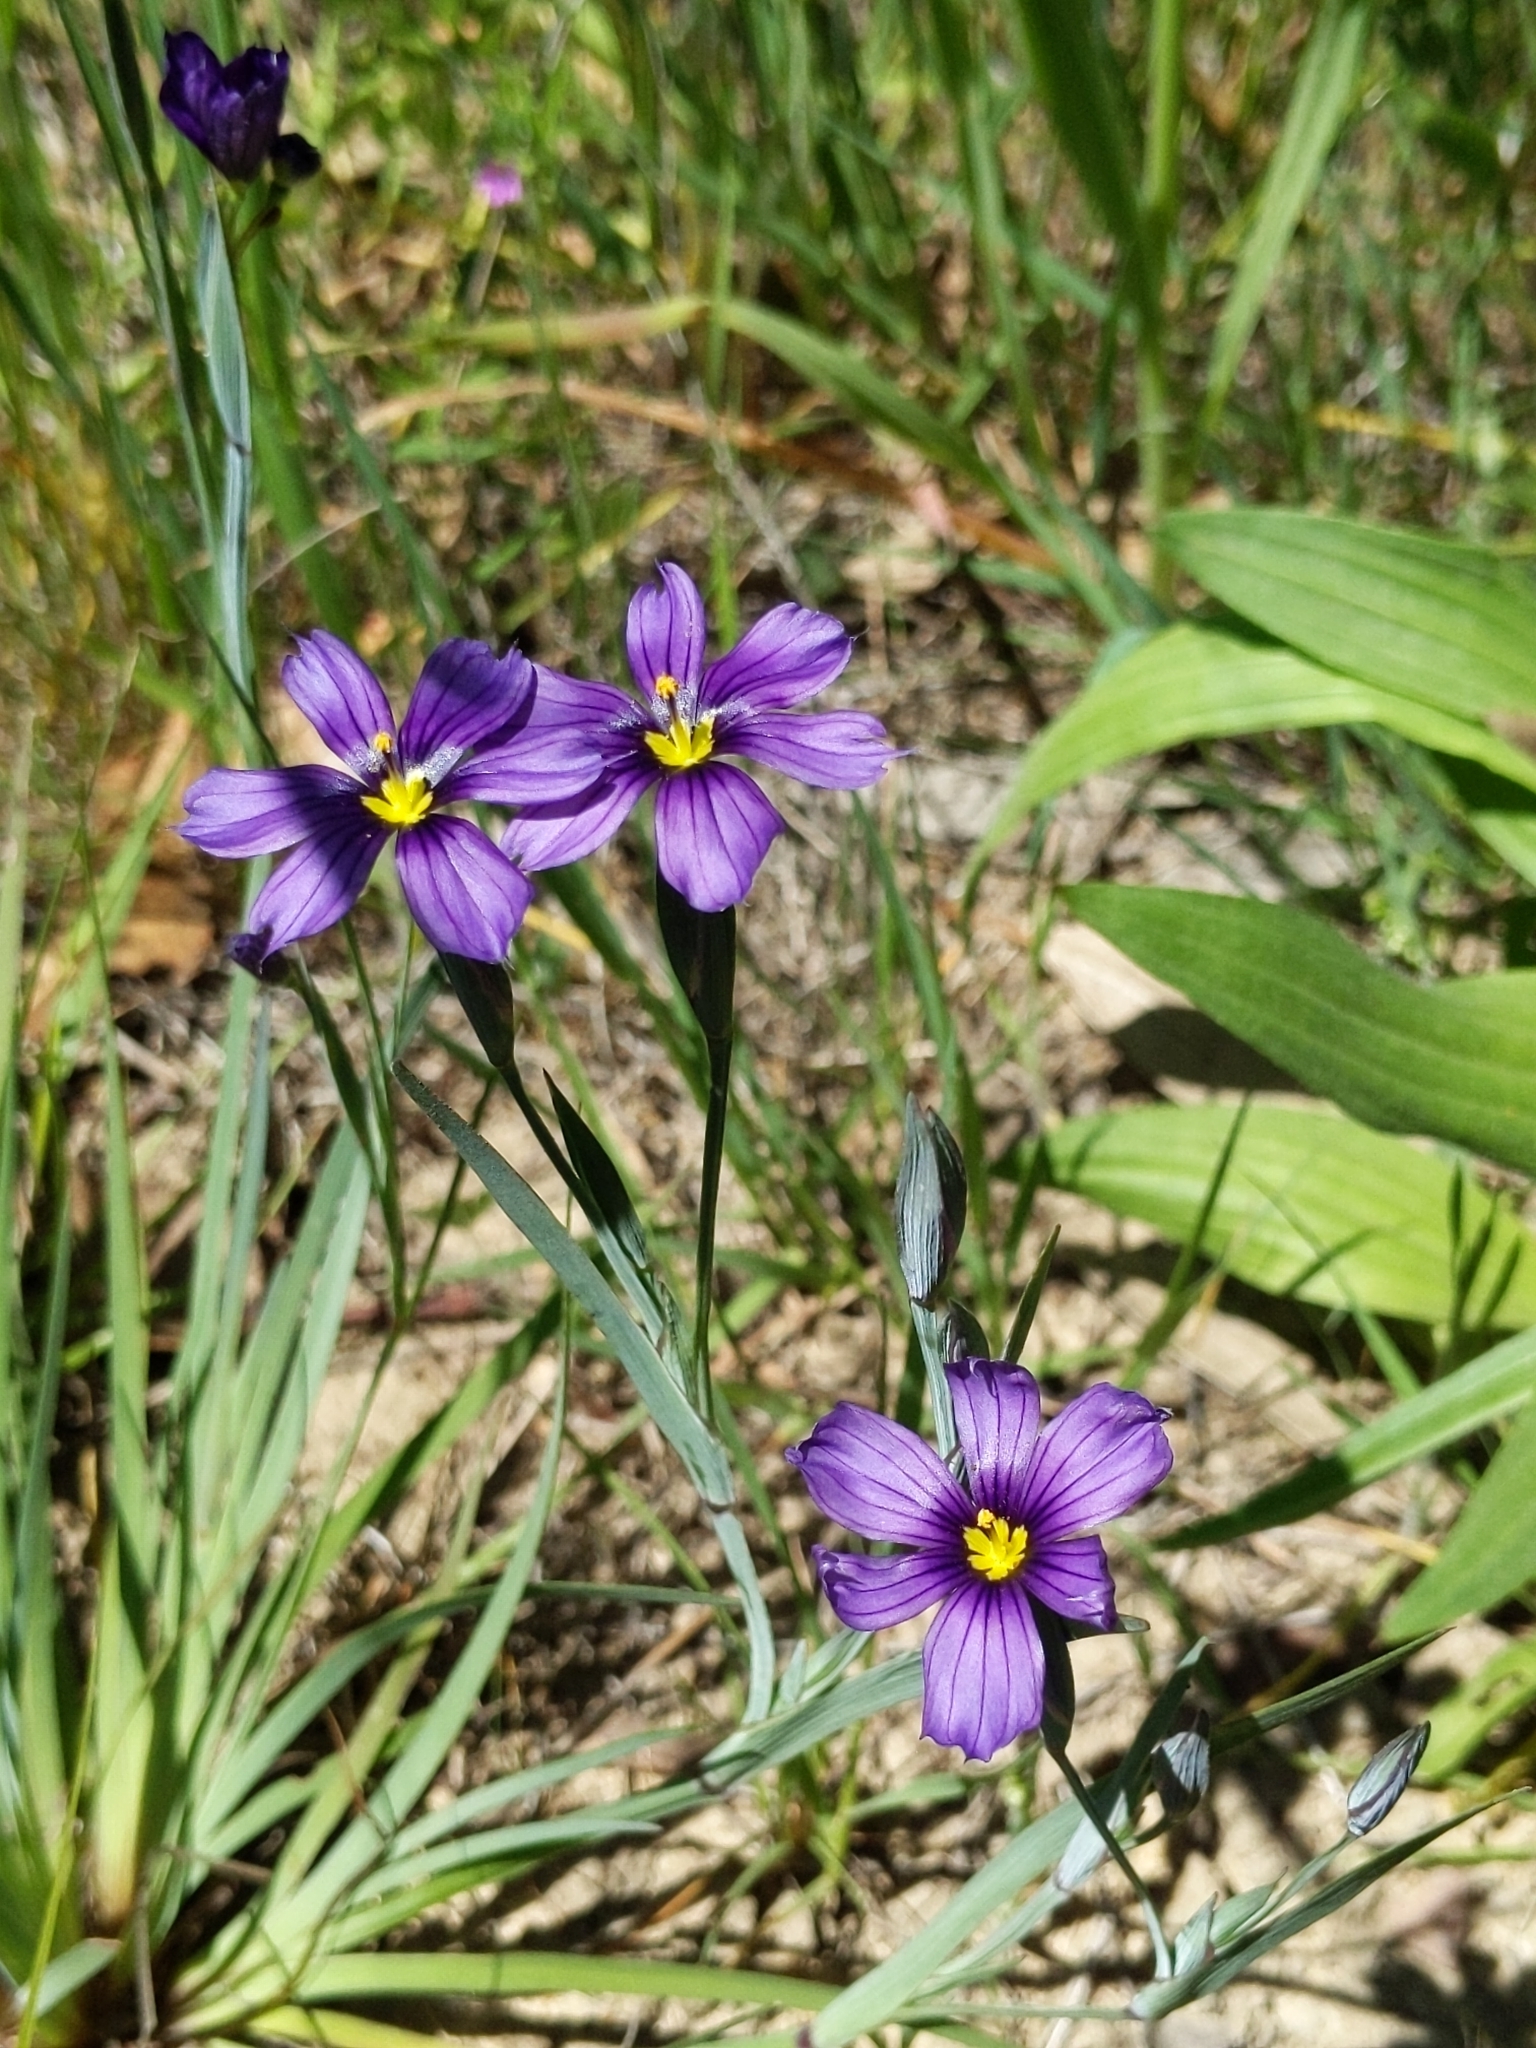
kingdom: Plantae
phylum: Tracheophyta
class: Liliopsida
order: Asparagales
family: Iridaceae
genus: Sisyrinchium
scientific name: Sisyrinchium bellum
